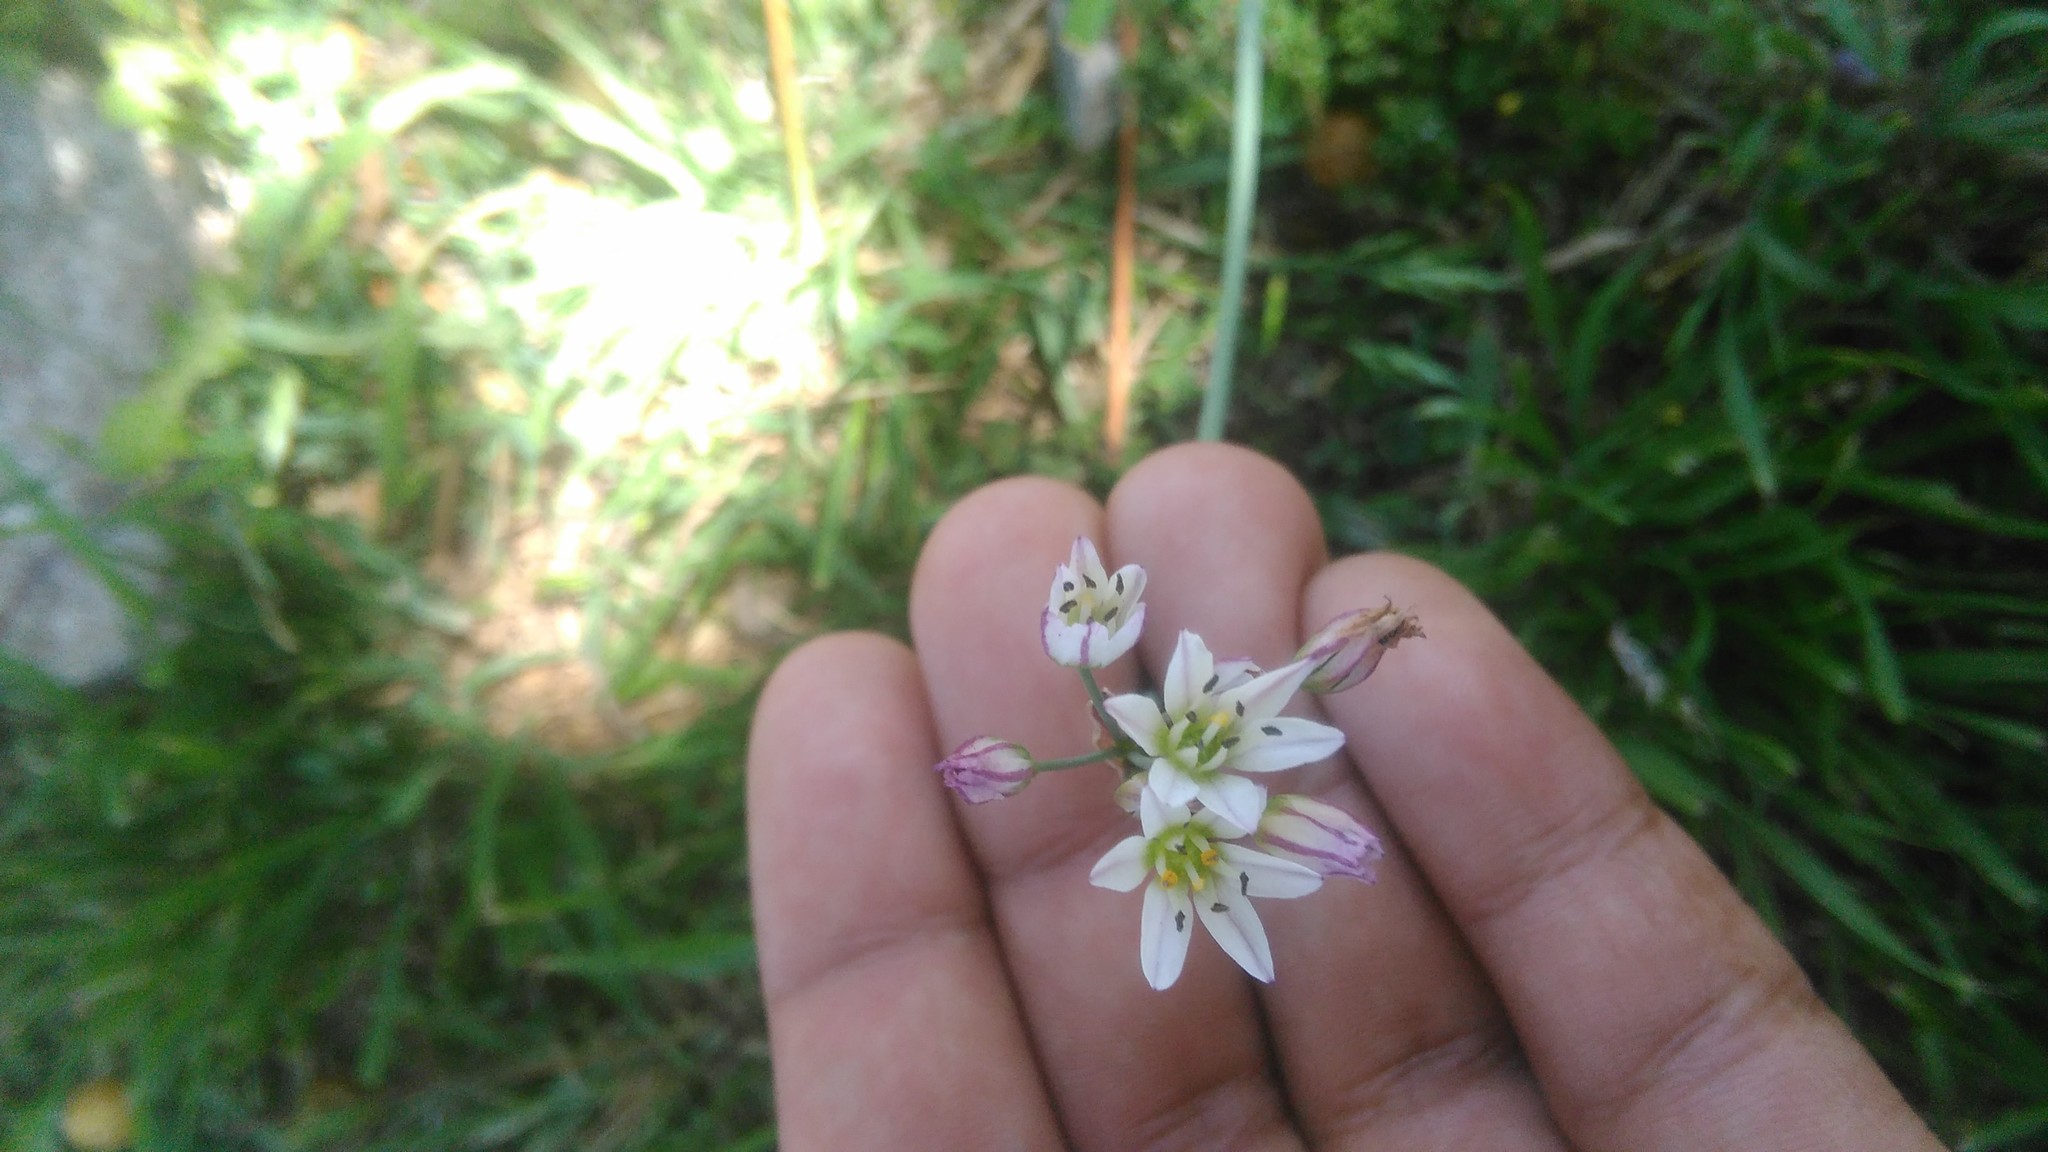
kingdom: Plantae
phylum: Tracheophyta
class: Liliopsida
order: Asparagales
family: Amaryllidaceae
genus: Nothoscordum
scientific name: Nothoscordum gracile
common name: Slender false garlic
